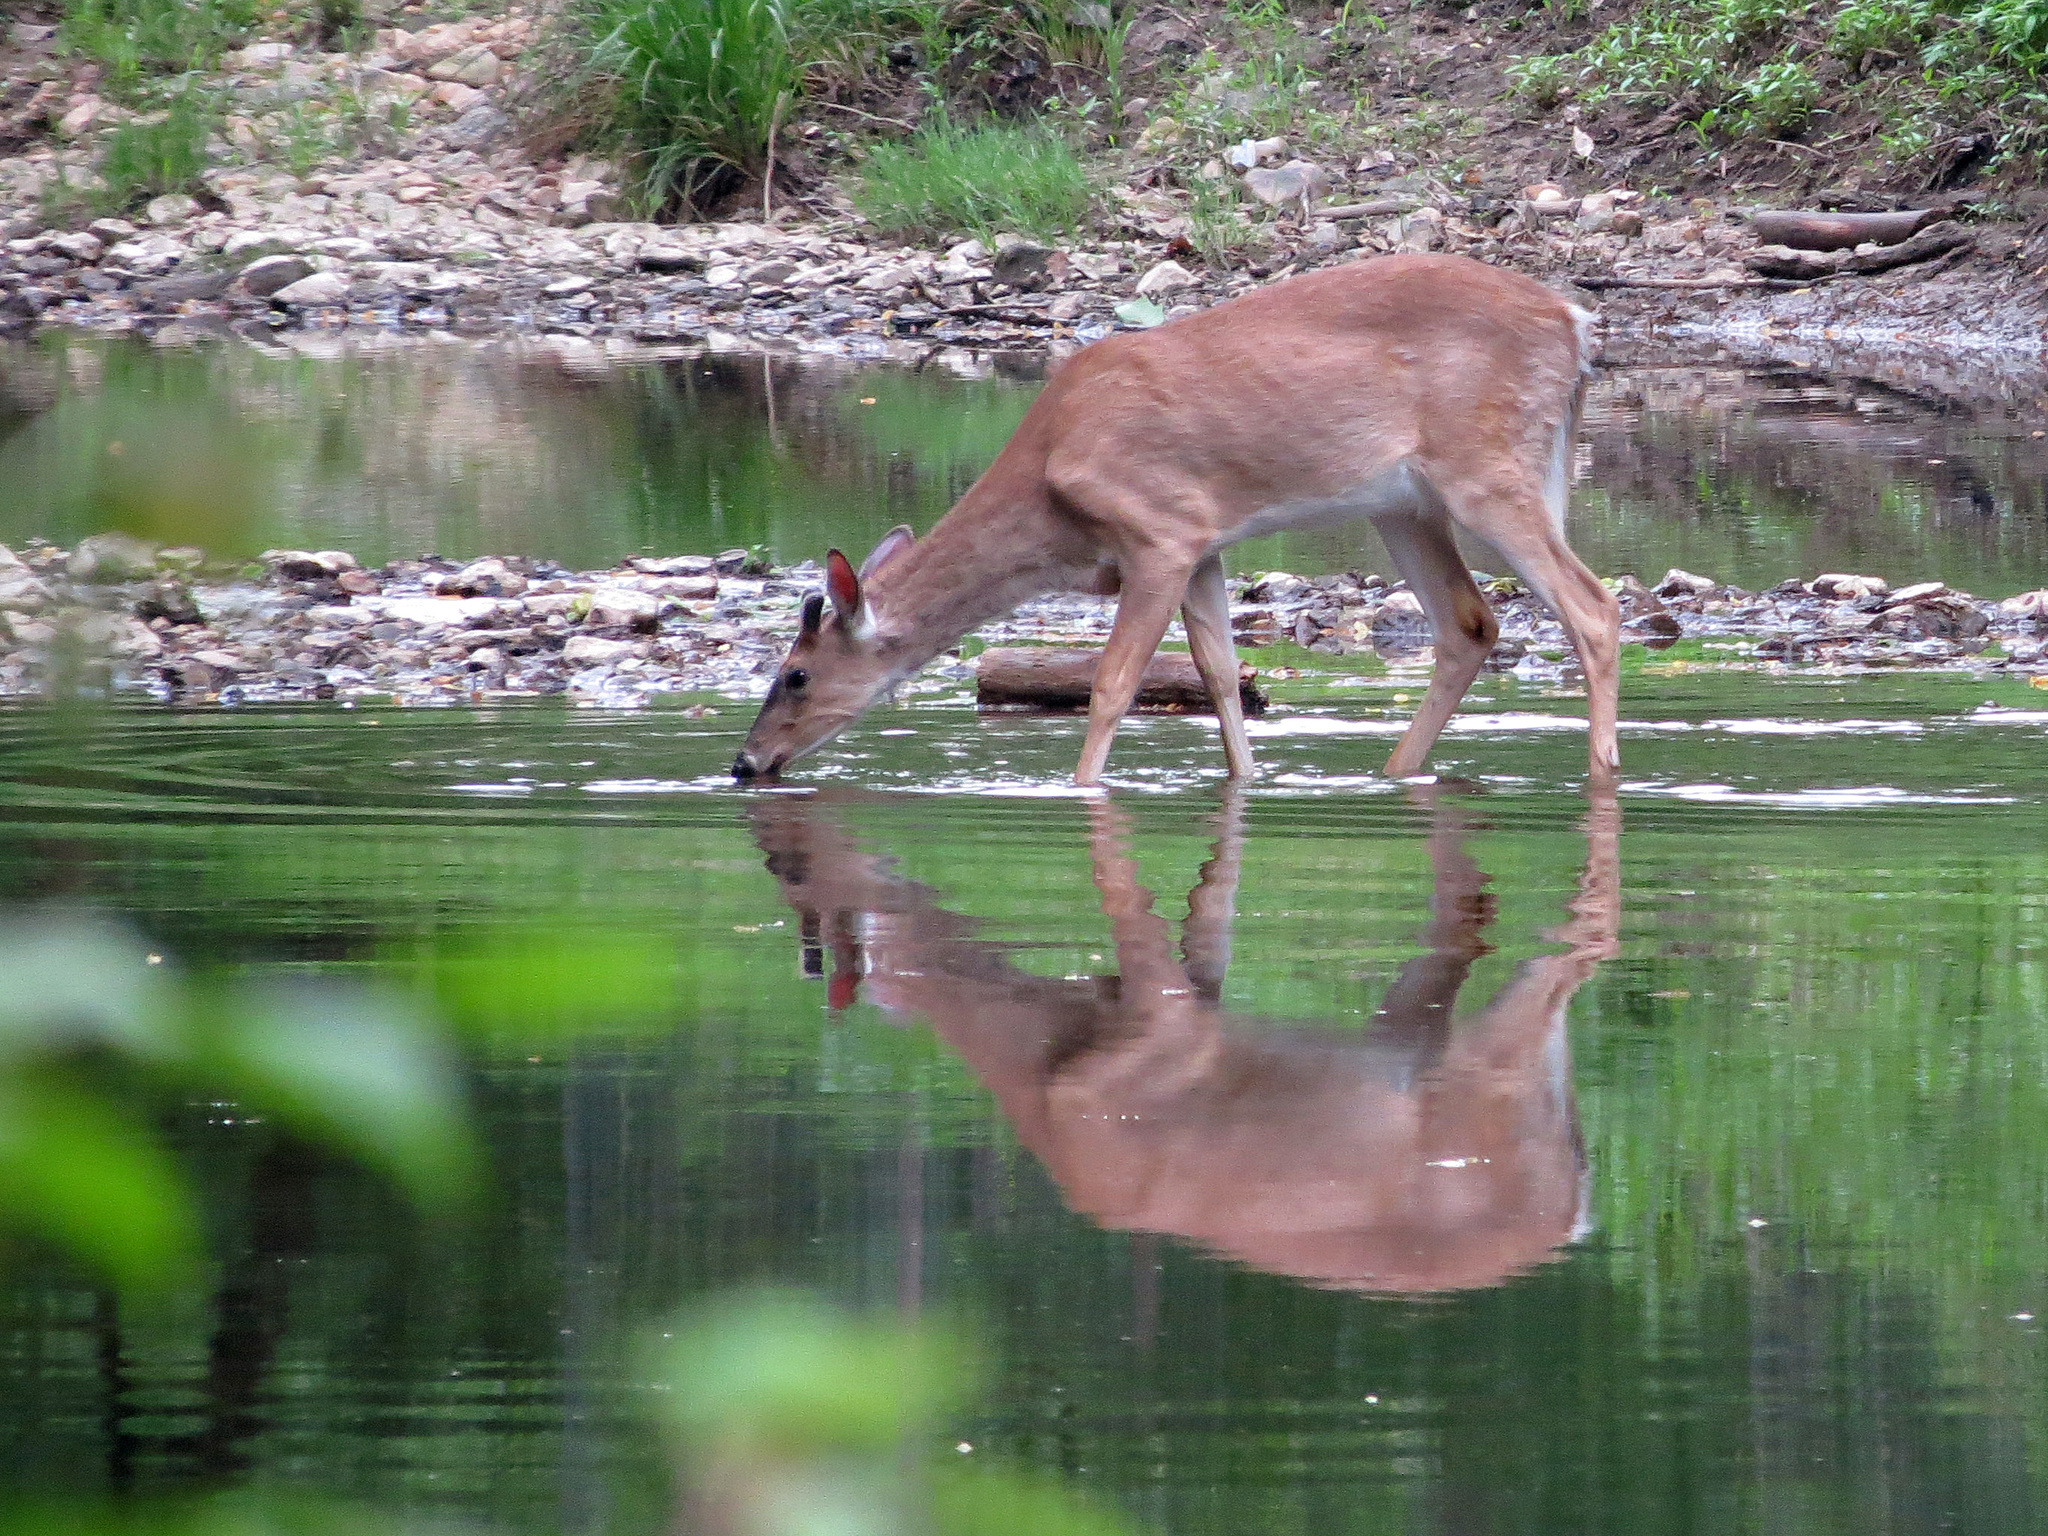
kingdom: Animalia
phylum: Chordata
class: Mammalia
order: Artiodactyla
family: Cervidae
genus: Odocoileus
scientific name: Odocoileus virginianus
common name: White-tailed deer
